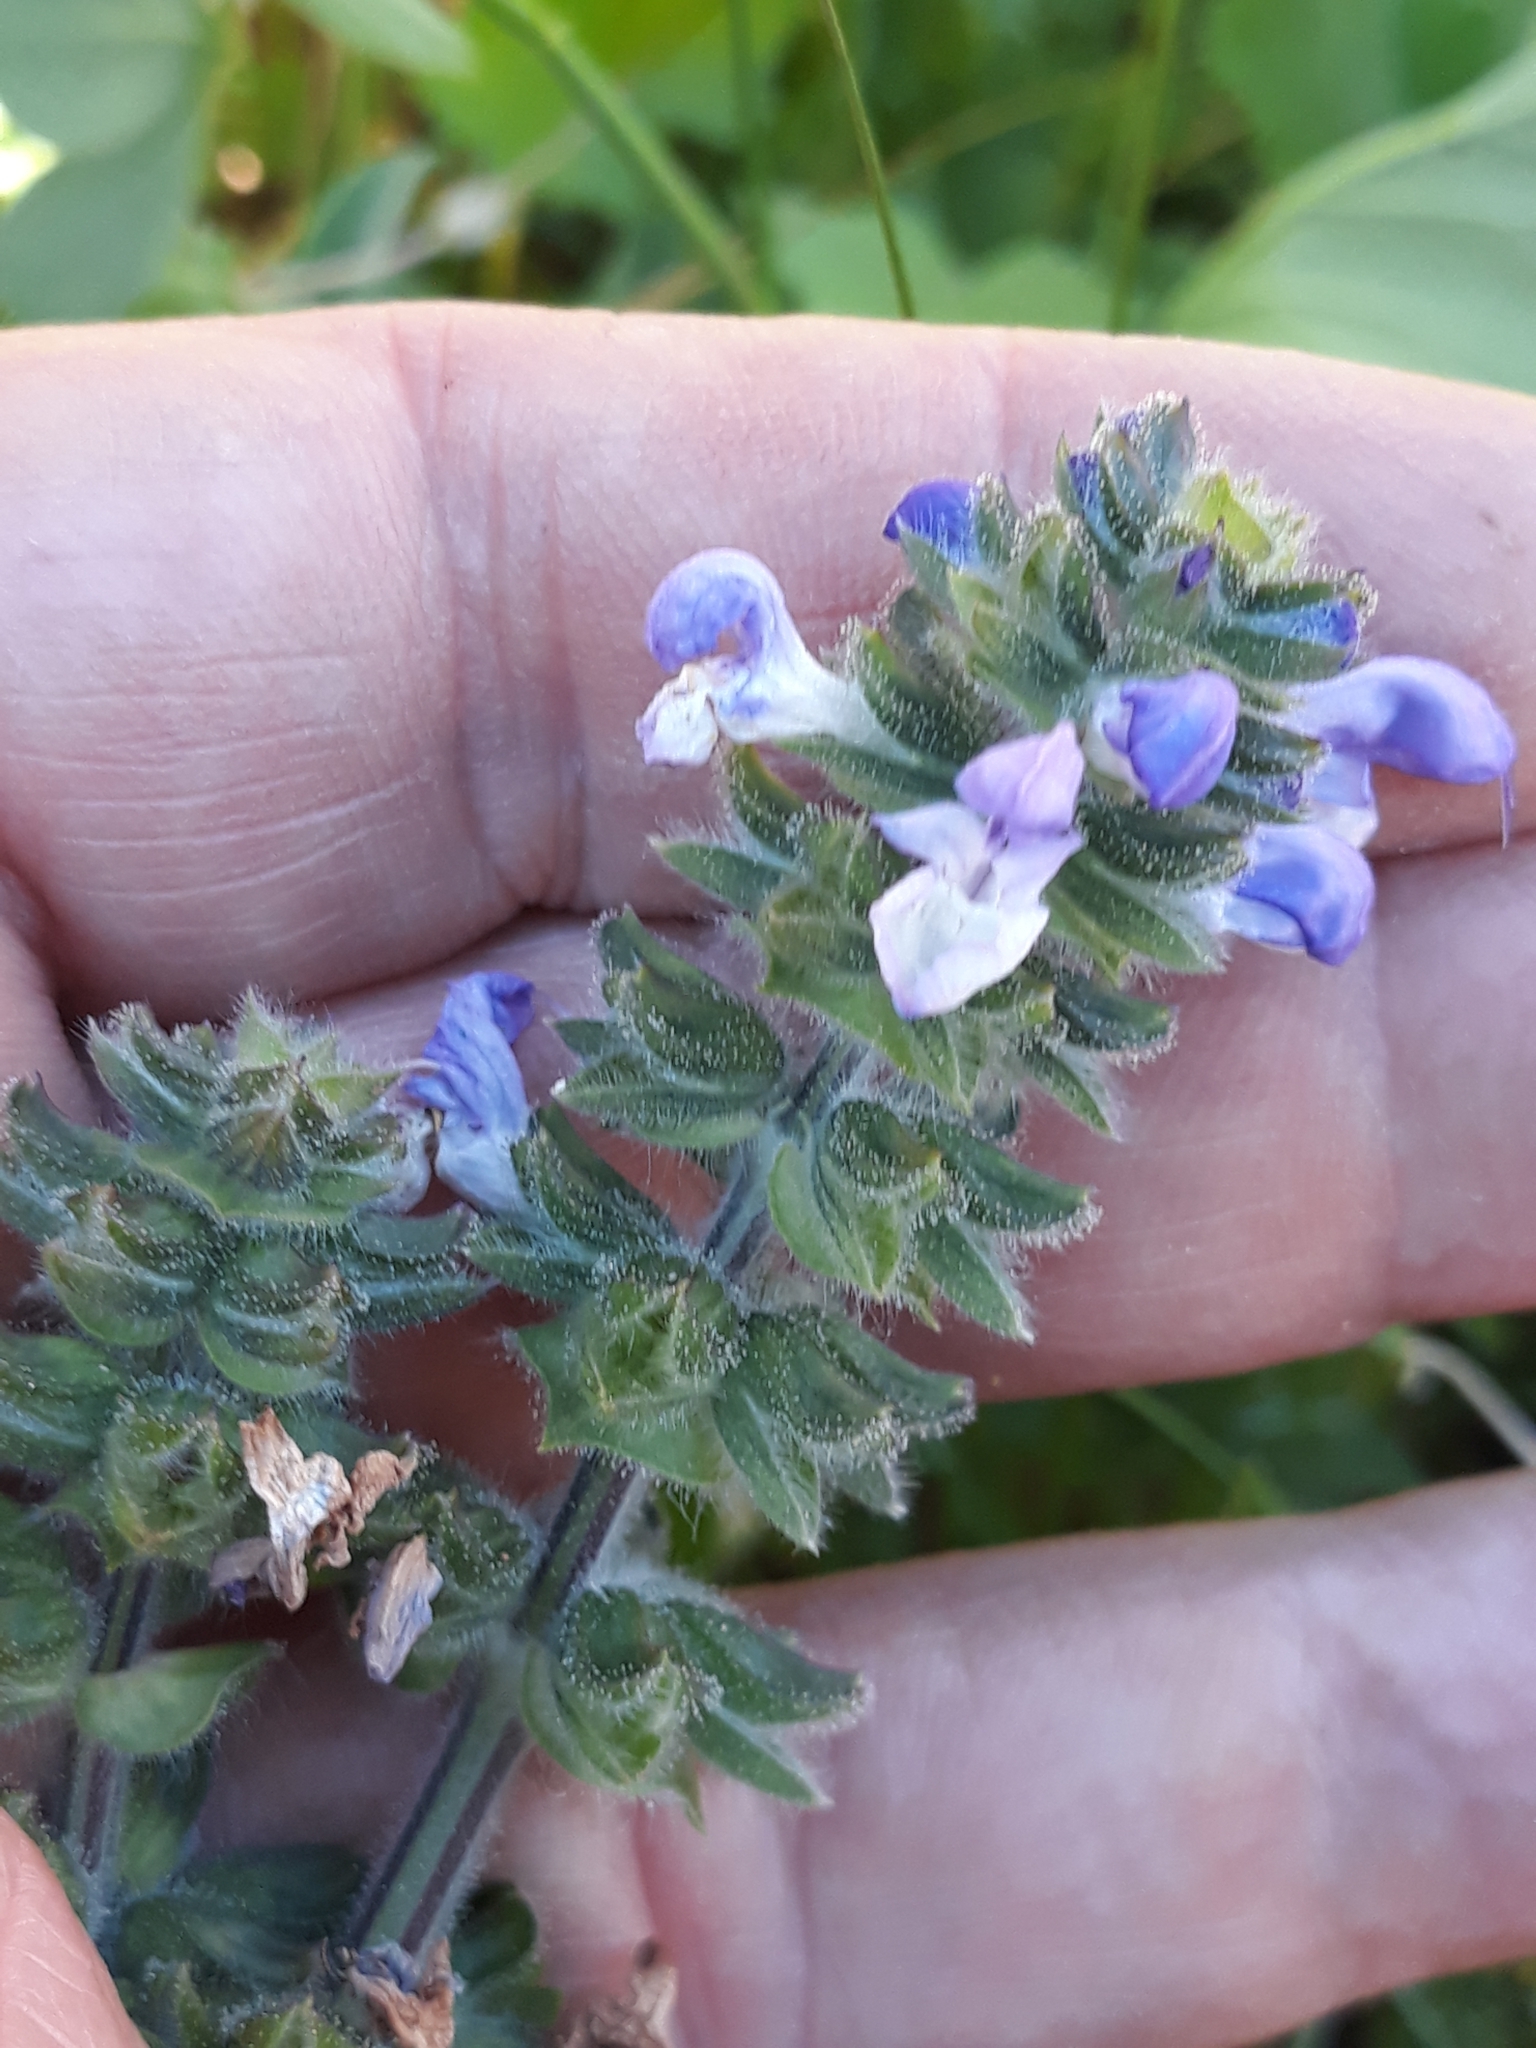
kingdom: Plantae
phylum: Tracheophyta
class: Magnoliopsida
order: Lamiales
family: Lamiaceae
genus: Salvia
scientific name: Salvia verbenaca
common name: Wild clary
